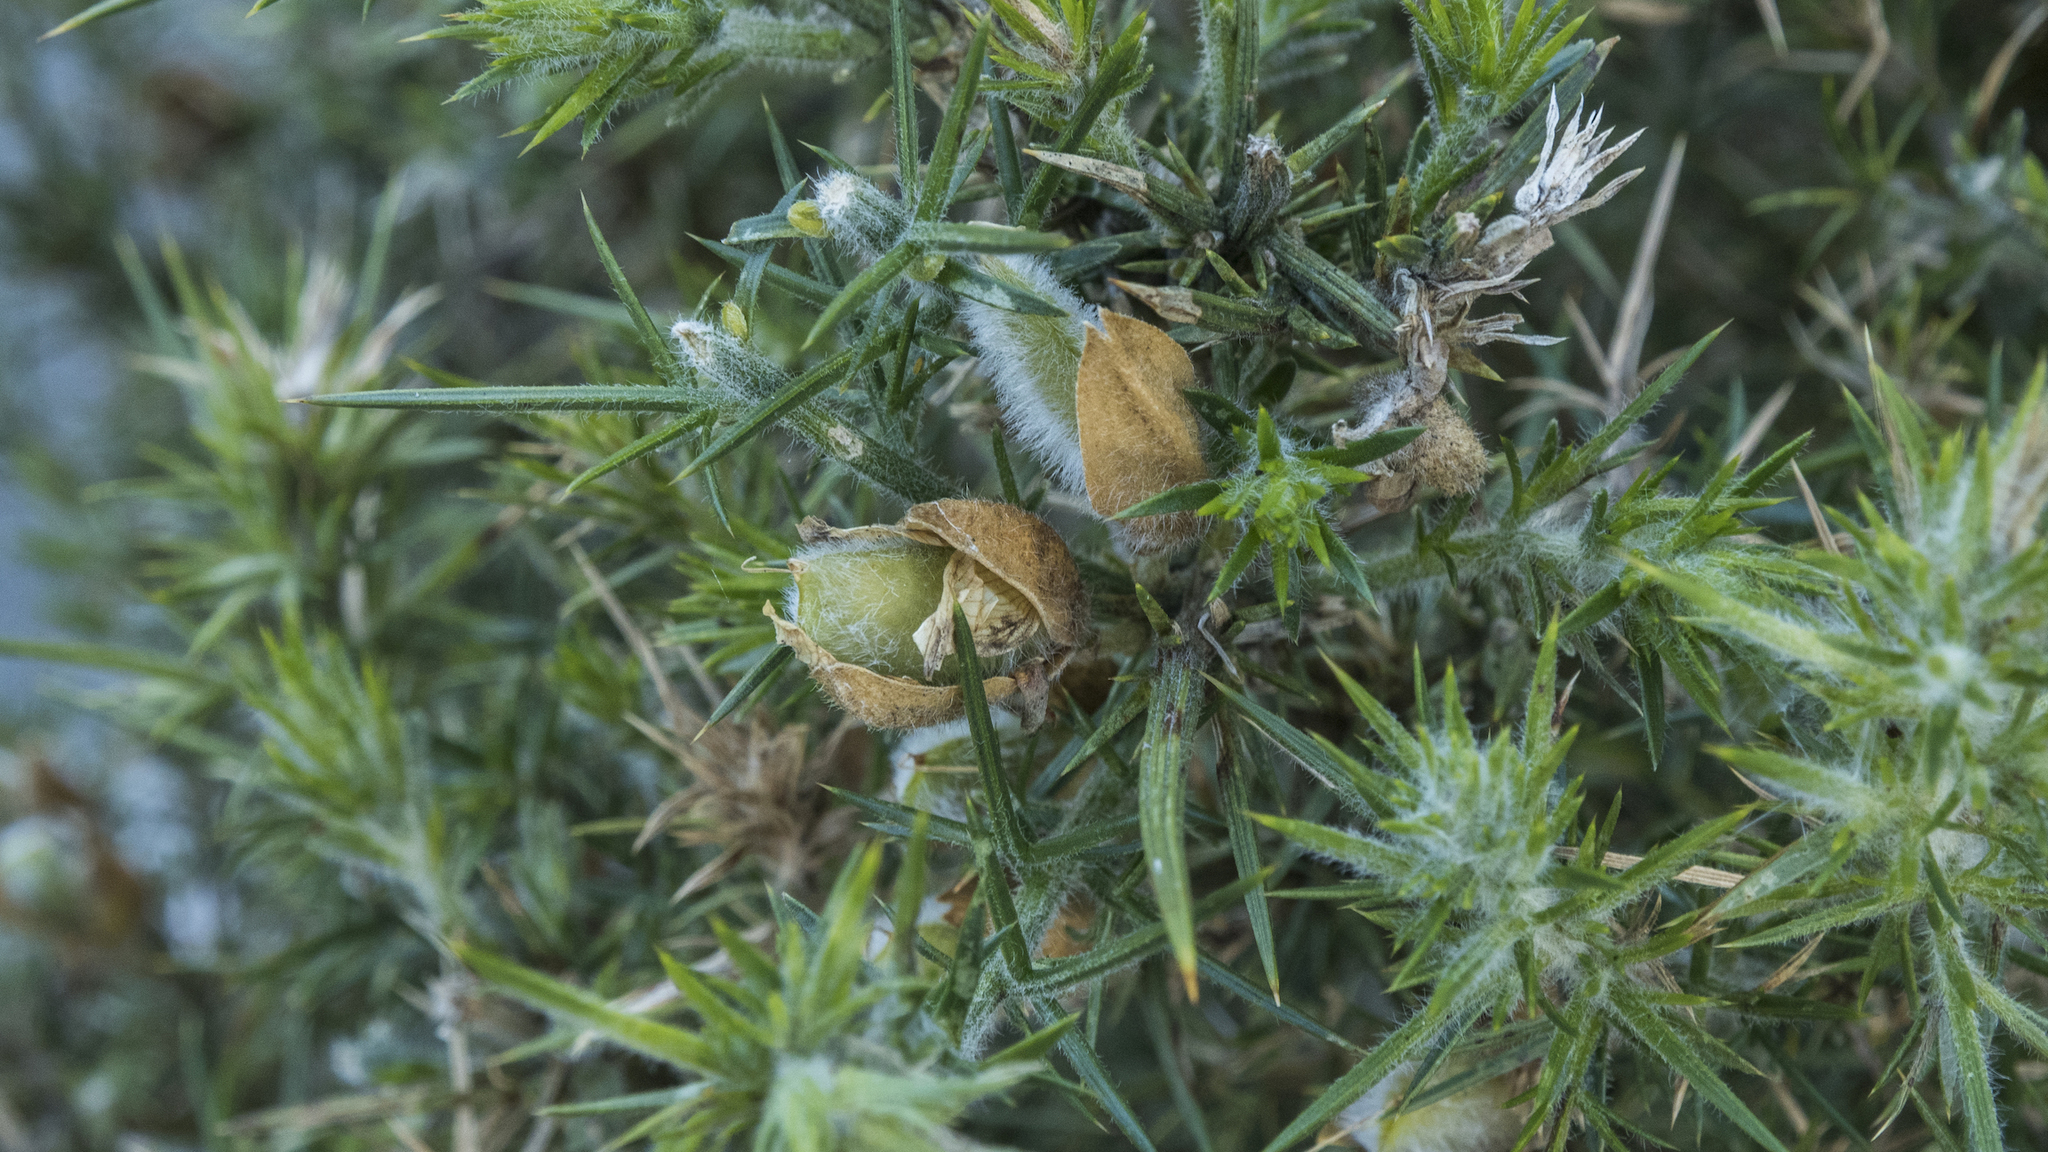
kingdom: Plantae
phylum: Tracheophyta
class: Magnoliopsida
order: Fabales
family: Fabaceae
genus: Ulex
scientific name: Ulex europaeus
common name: Common gorse
